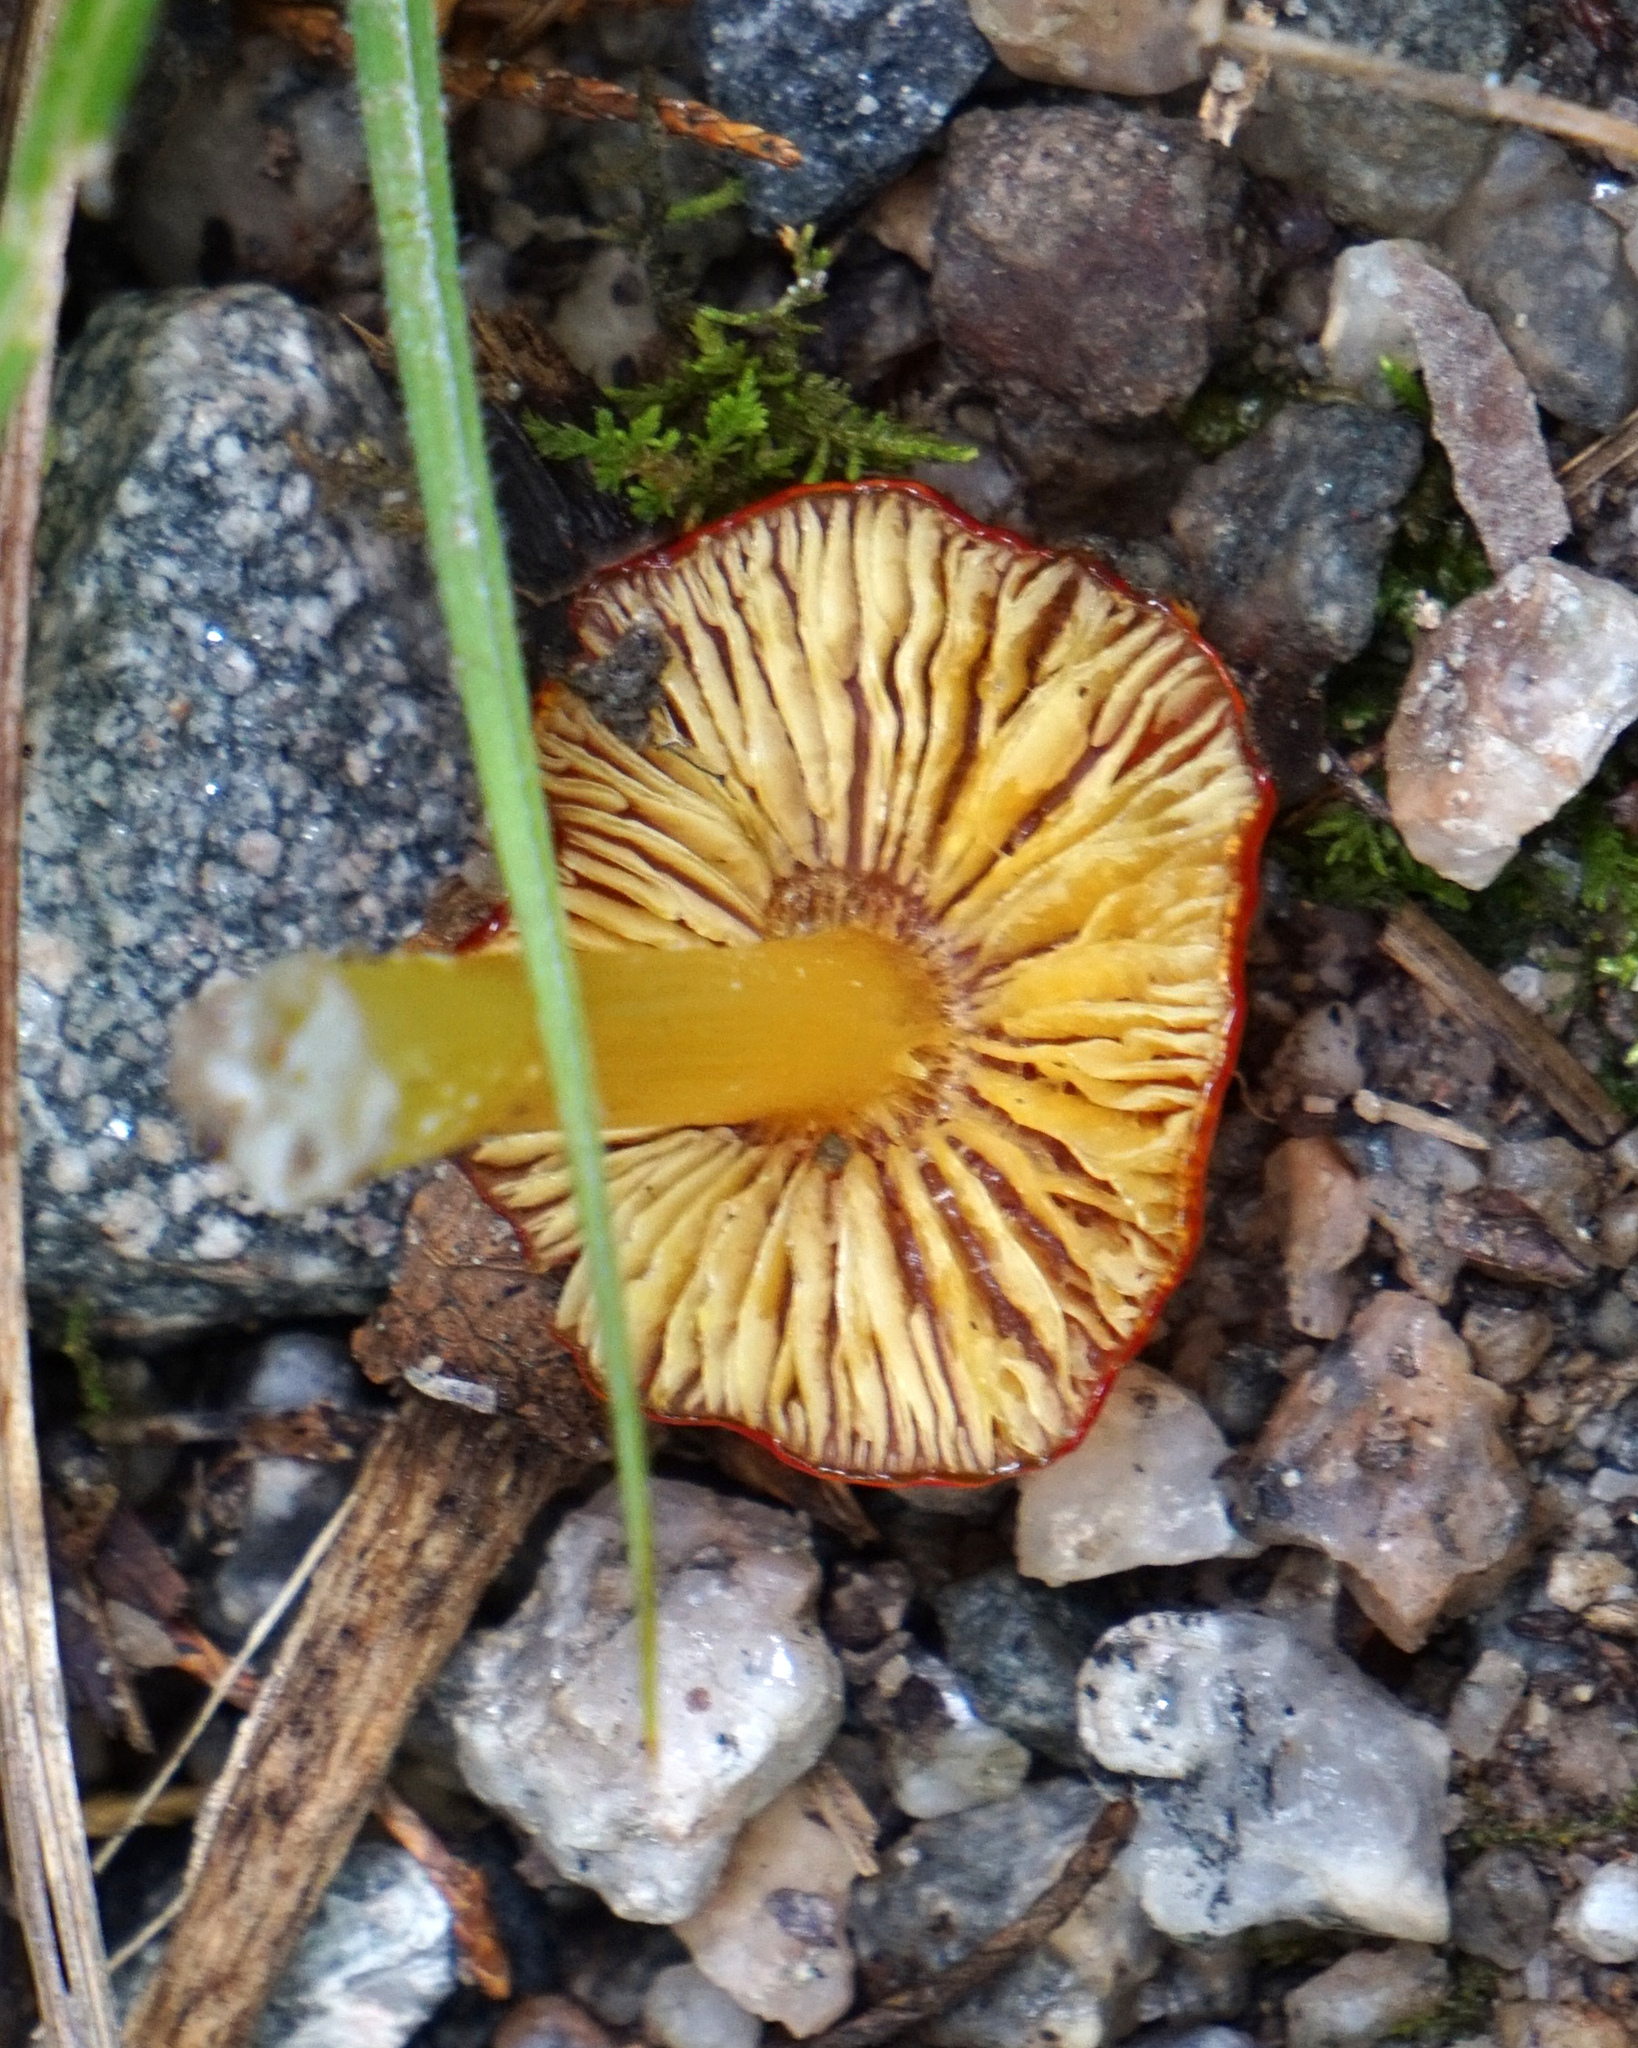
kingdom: Fungi
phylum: Basidiomycota
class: Agaricomycetes
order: Agaricales
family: Hygrophoraceae
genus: Hygrocybe
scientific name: Hygrocybe cuspidata
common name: Candy apple waxy cap
